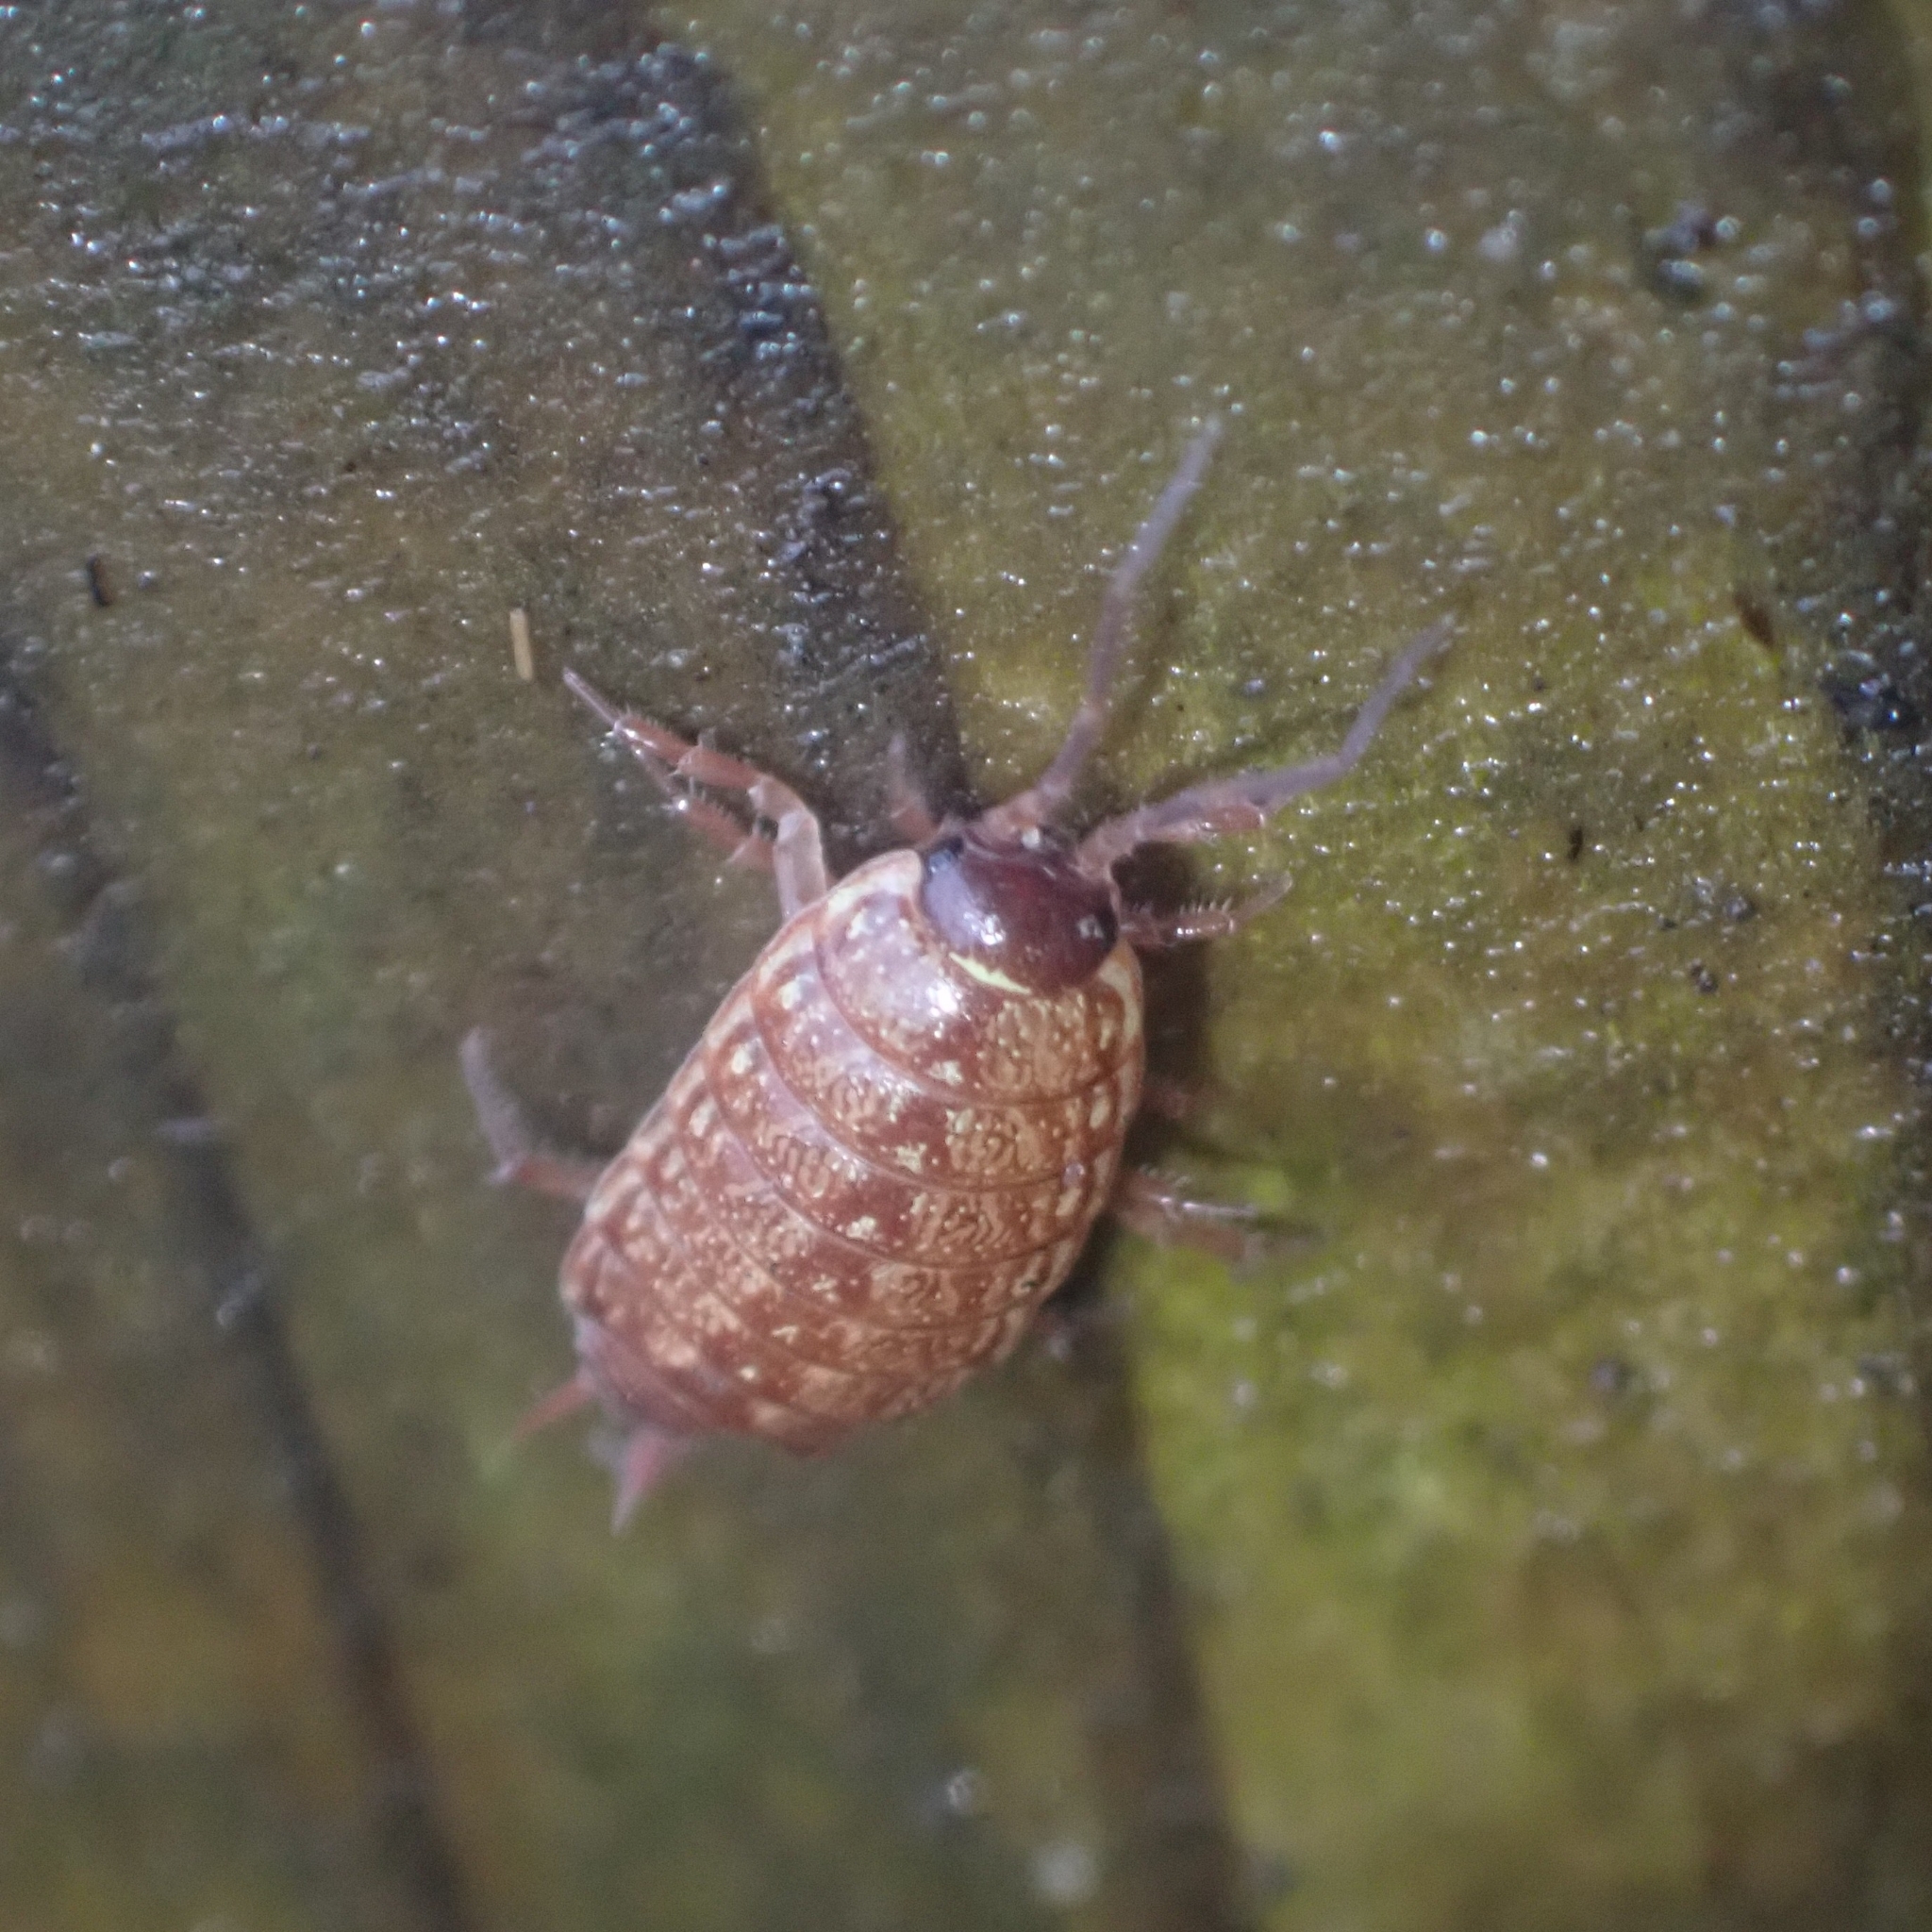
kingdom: Animalia
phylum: Arthropoda
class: Malacostraca
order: Isopoda
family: Philosciidae
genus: Philoscia
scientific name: Philoscia muscorum
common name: Common striped woodlouse
